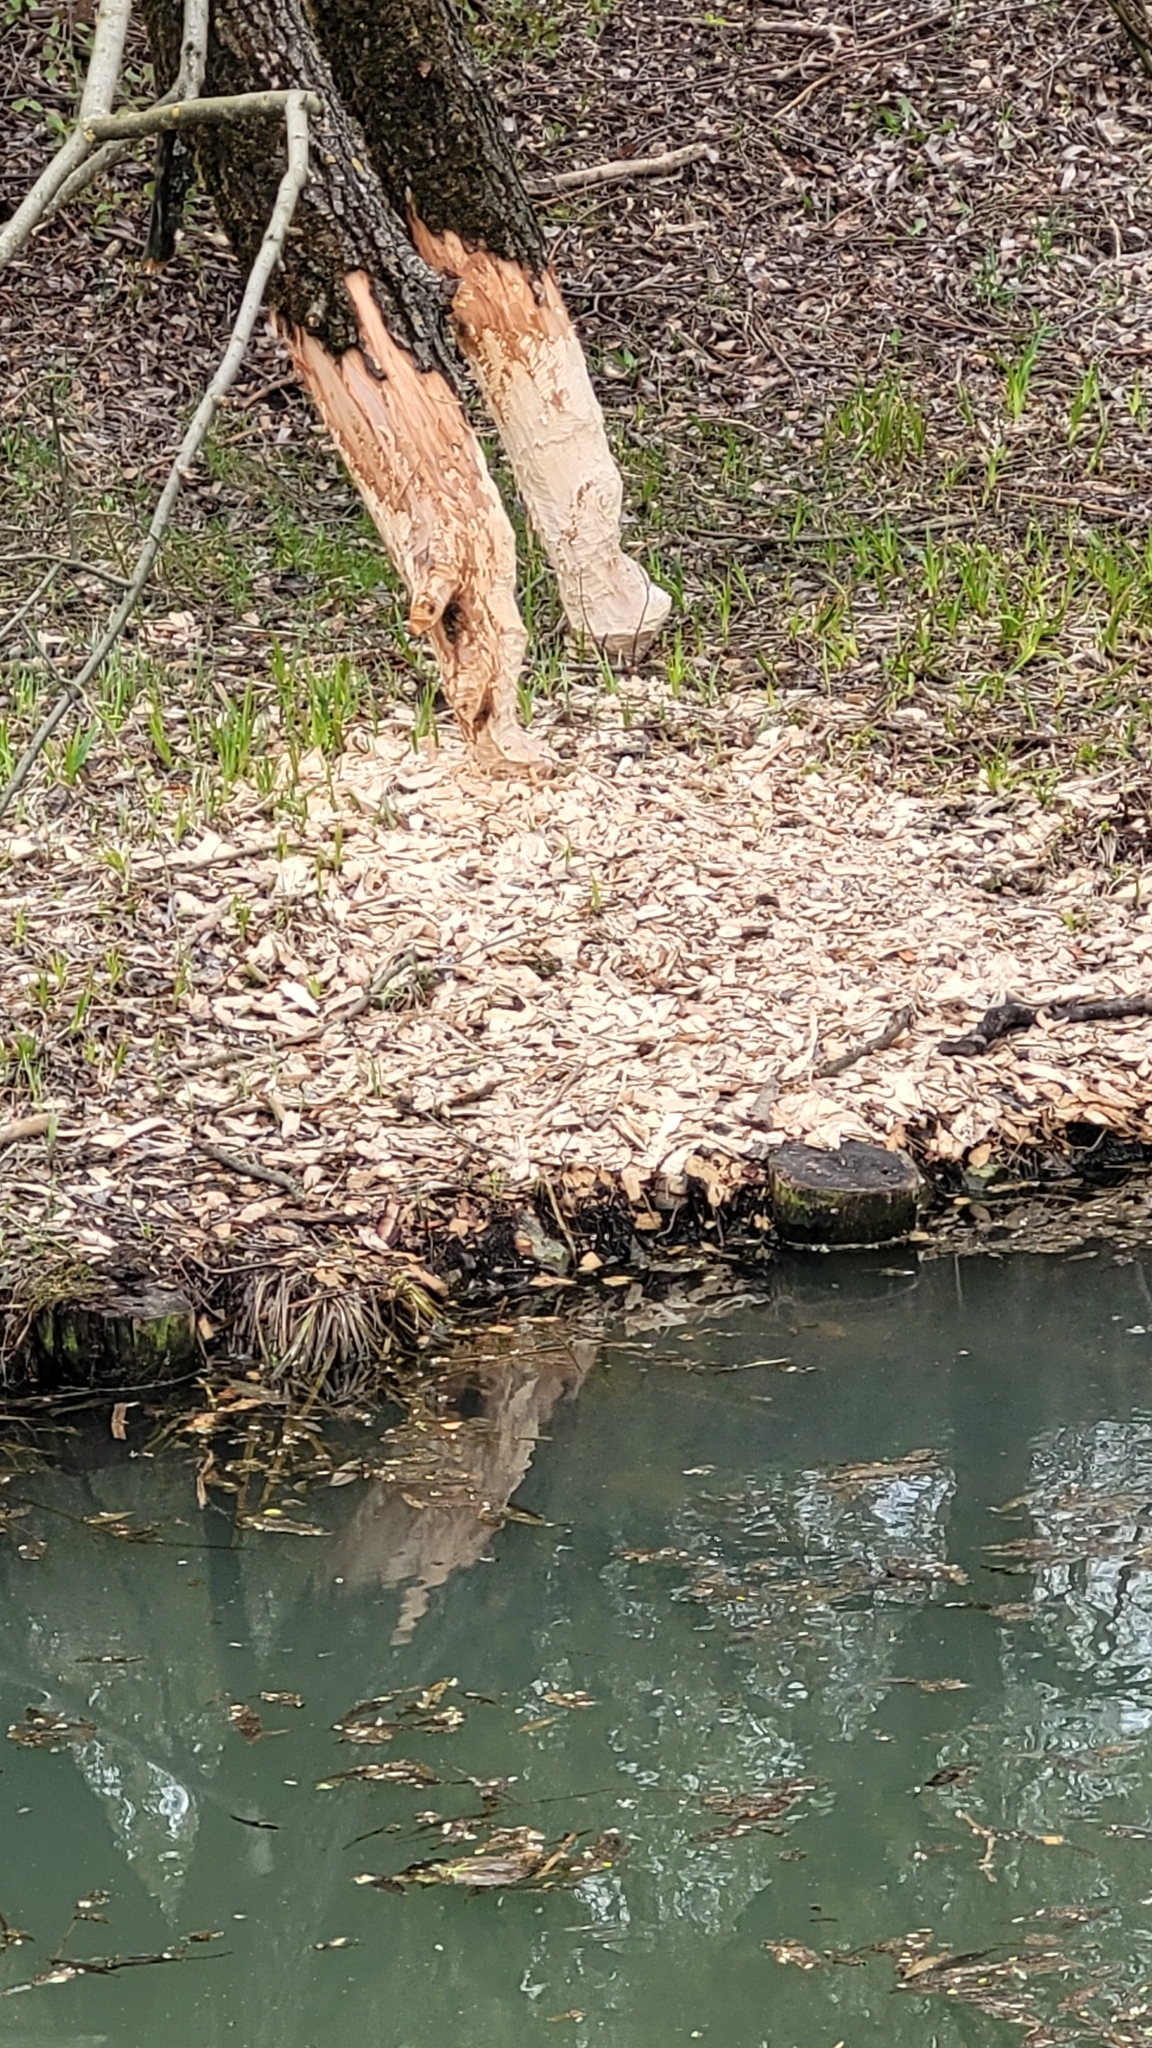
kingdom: Animalia
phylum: Chordata
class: Mammalia
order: Rodentia
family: Castoridae
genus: Castor
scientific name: Castor fiber
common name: Eurasian beaver
